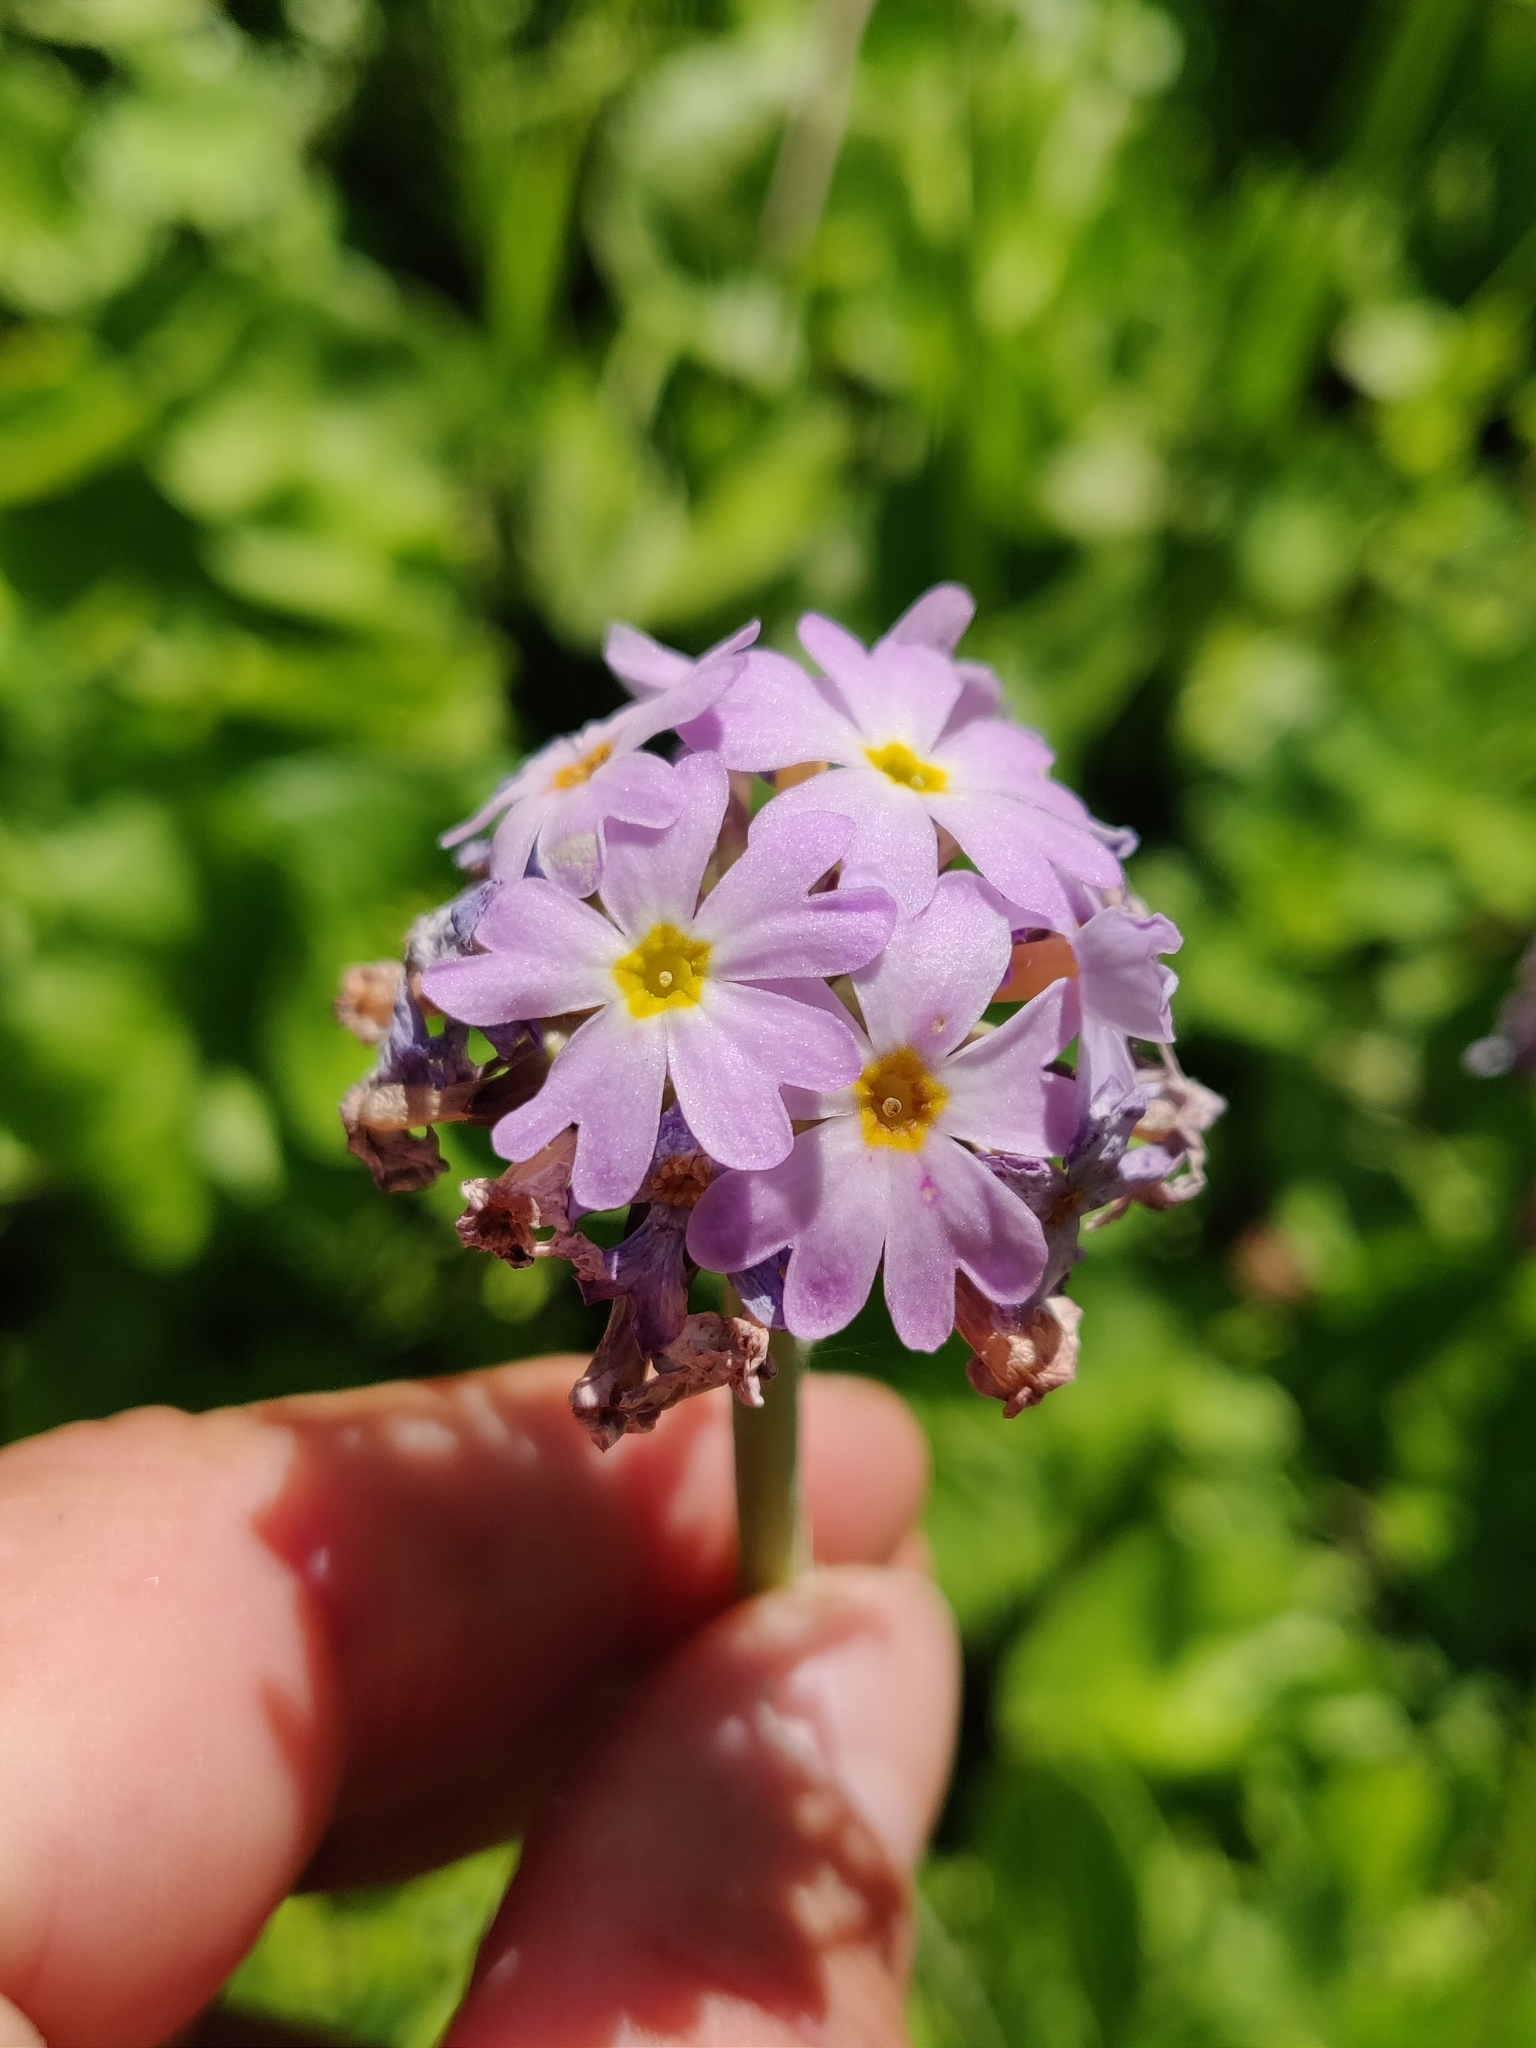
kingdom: Plantae
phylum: Tracheophyta
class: Magnoliopsida
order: Ericales
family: Primulaceae
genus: Primula
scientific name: Primula algida
